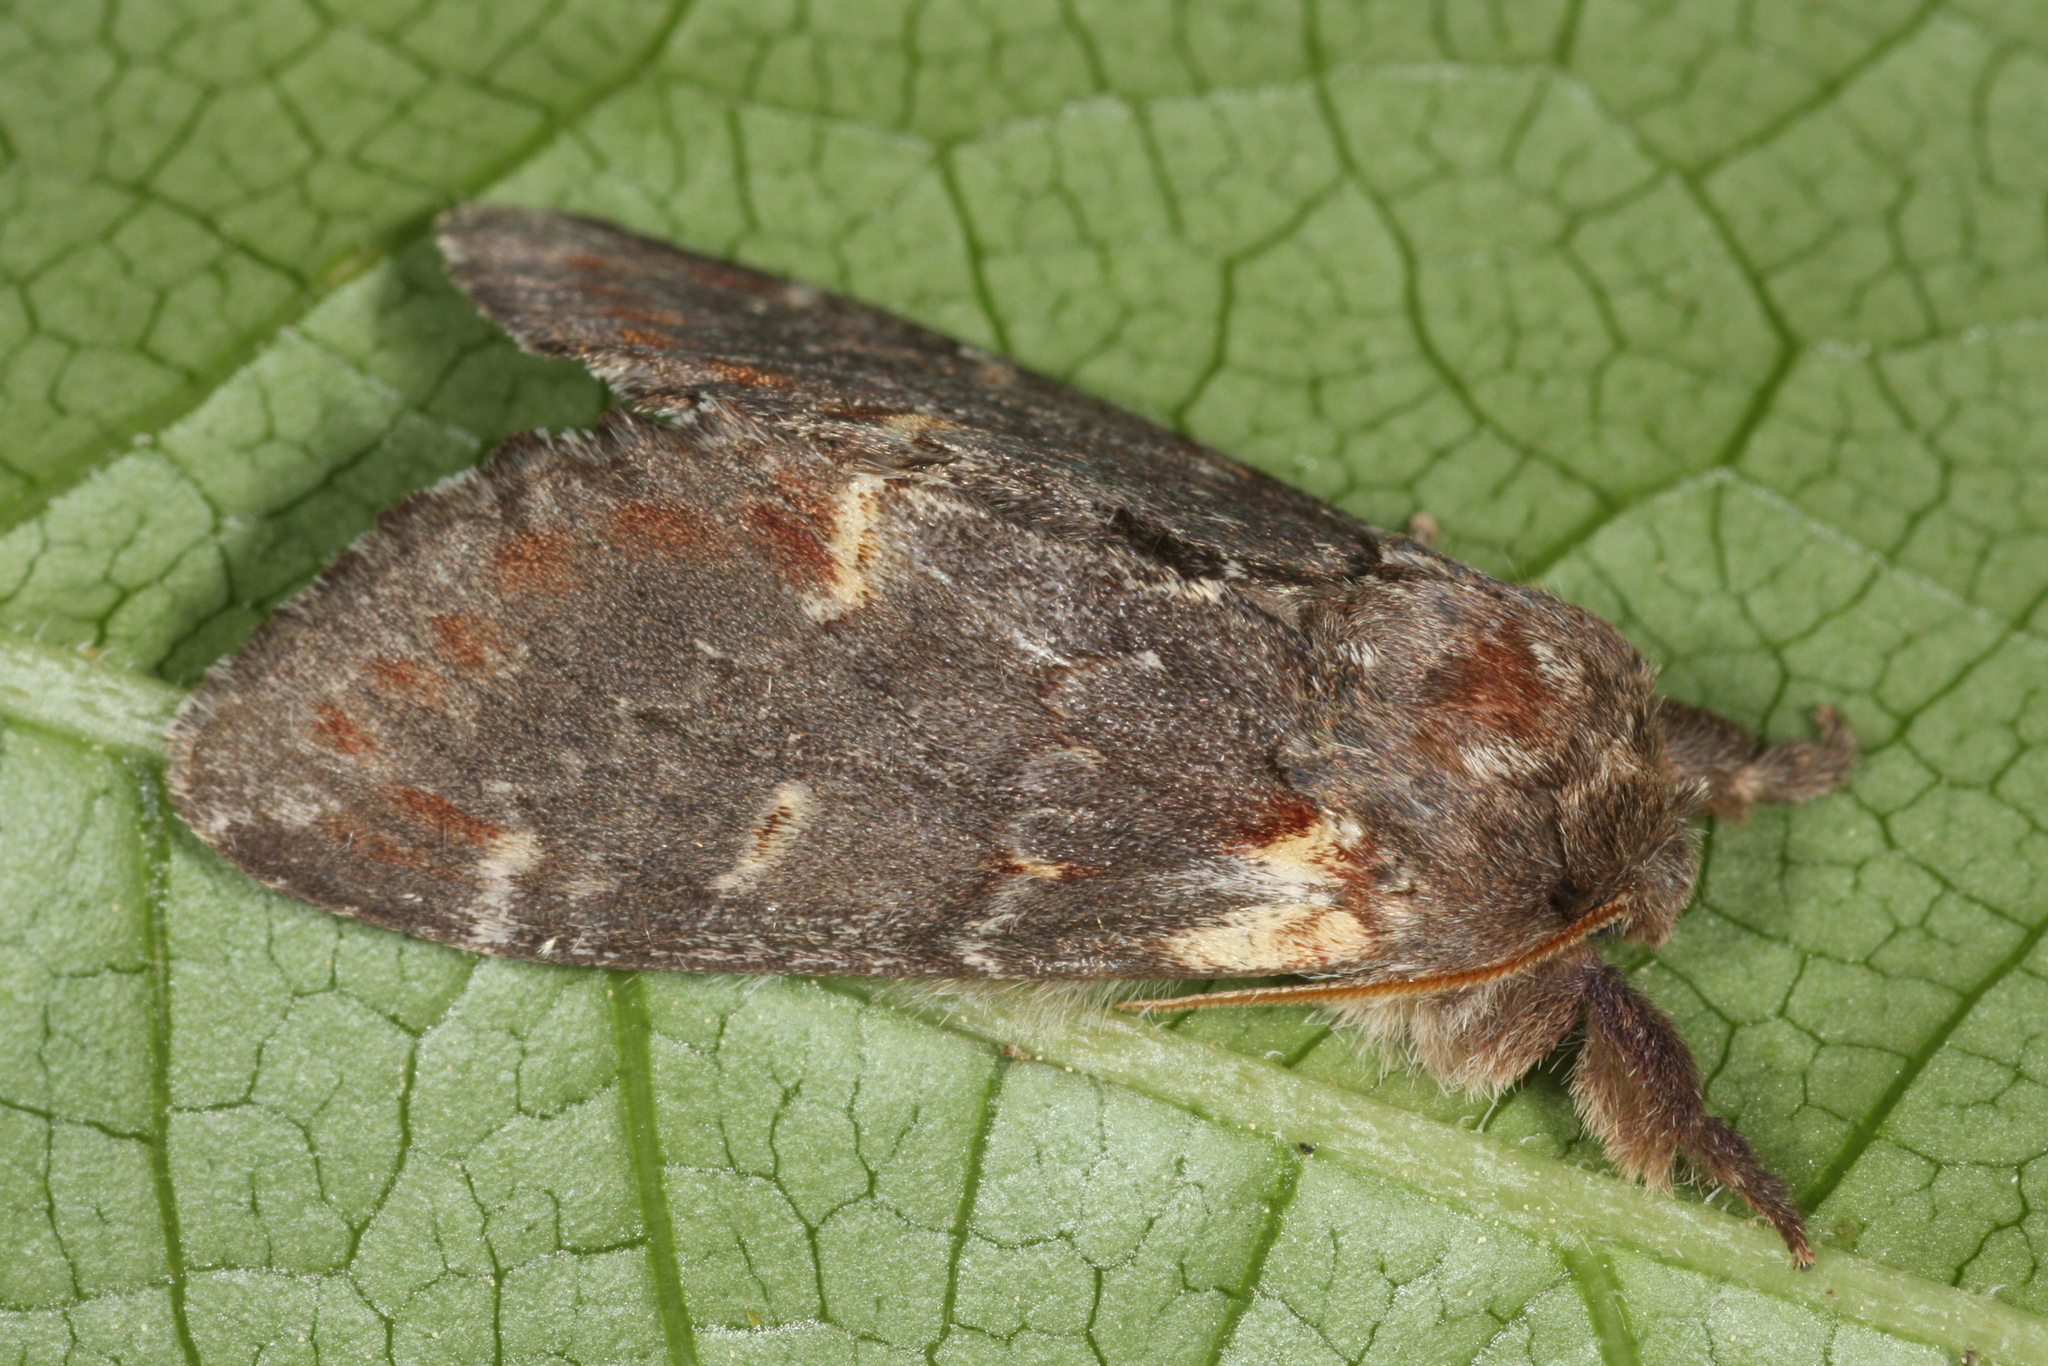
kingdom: Animalia
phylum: Arthropoda
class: Insecta
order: Lepidoptera
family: Notodontidae
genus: Notodonta
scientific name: Notodonta dromedarius
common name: Iron prominent
